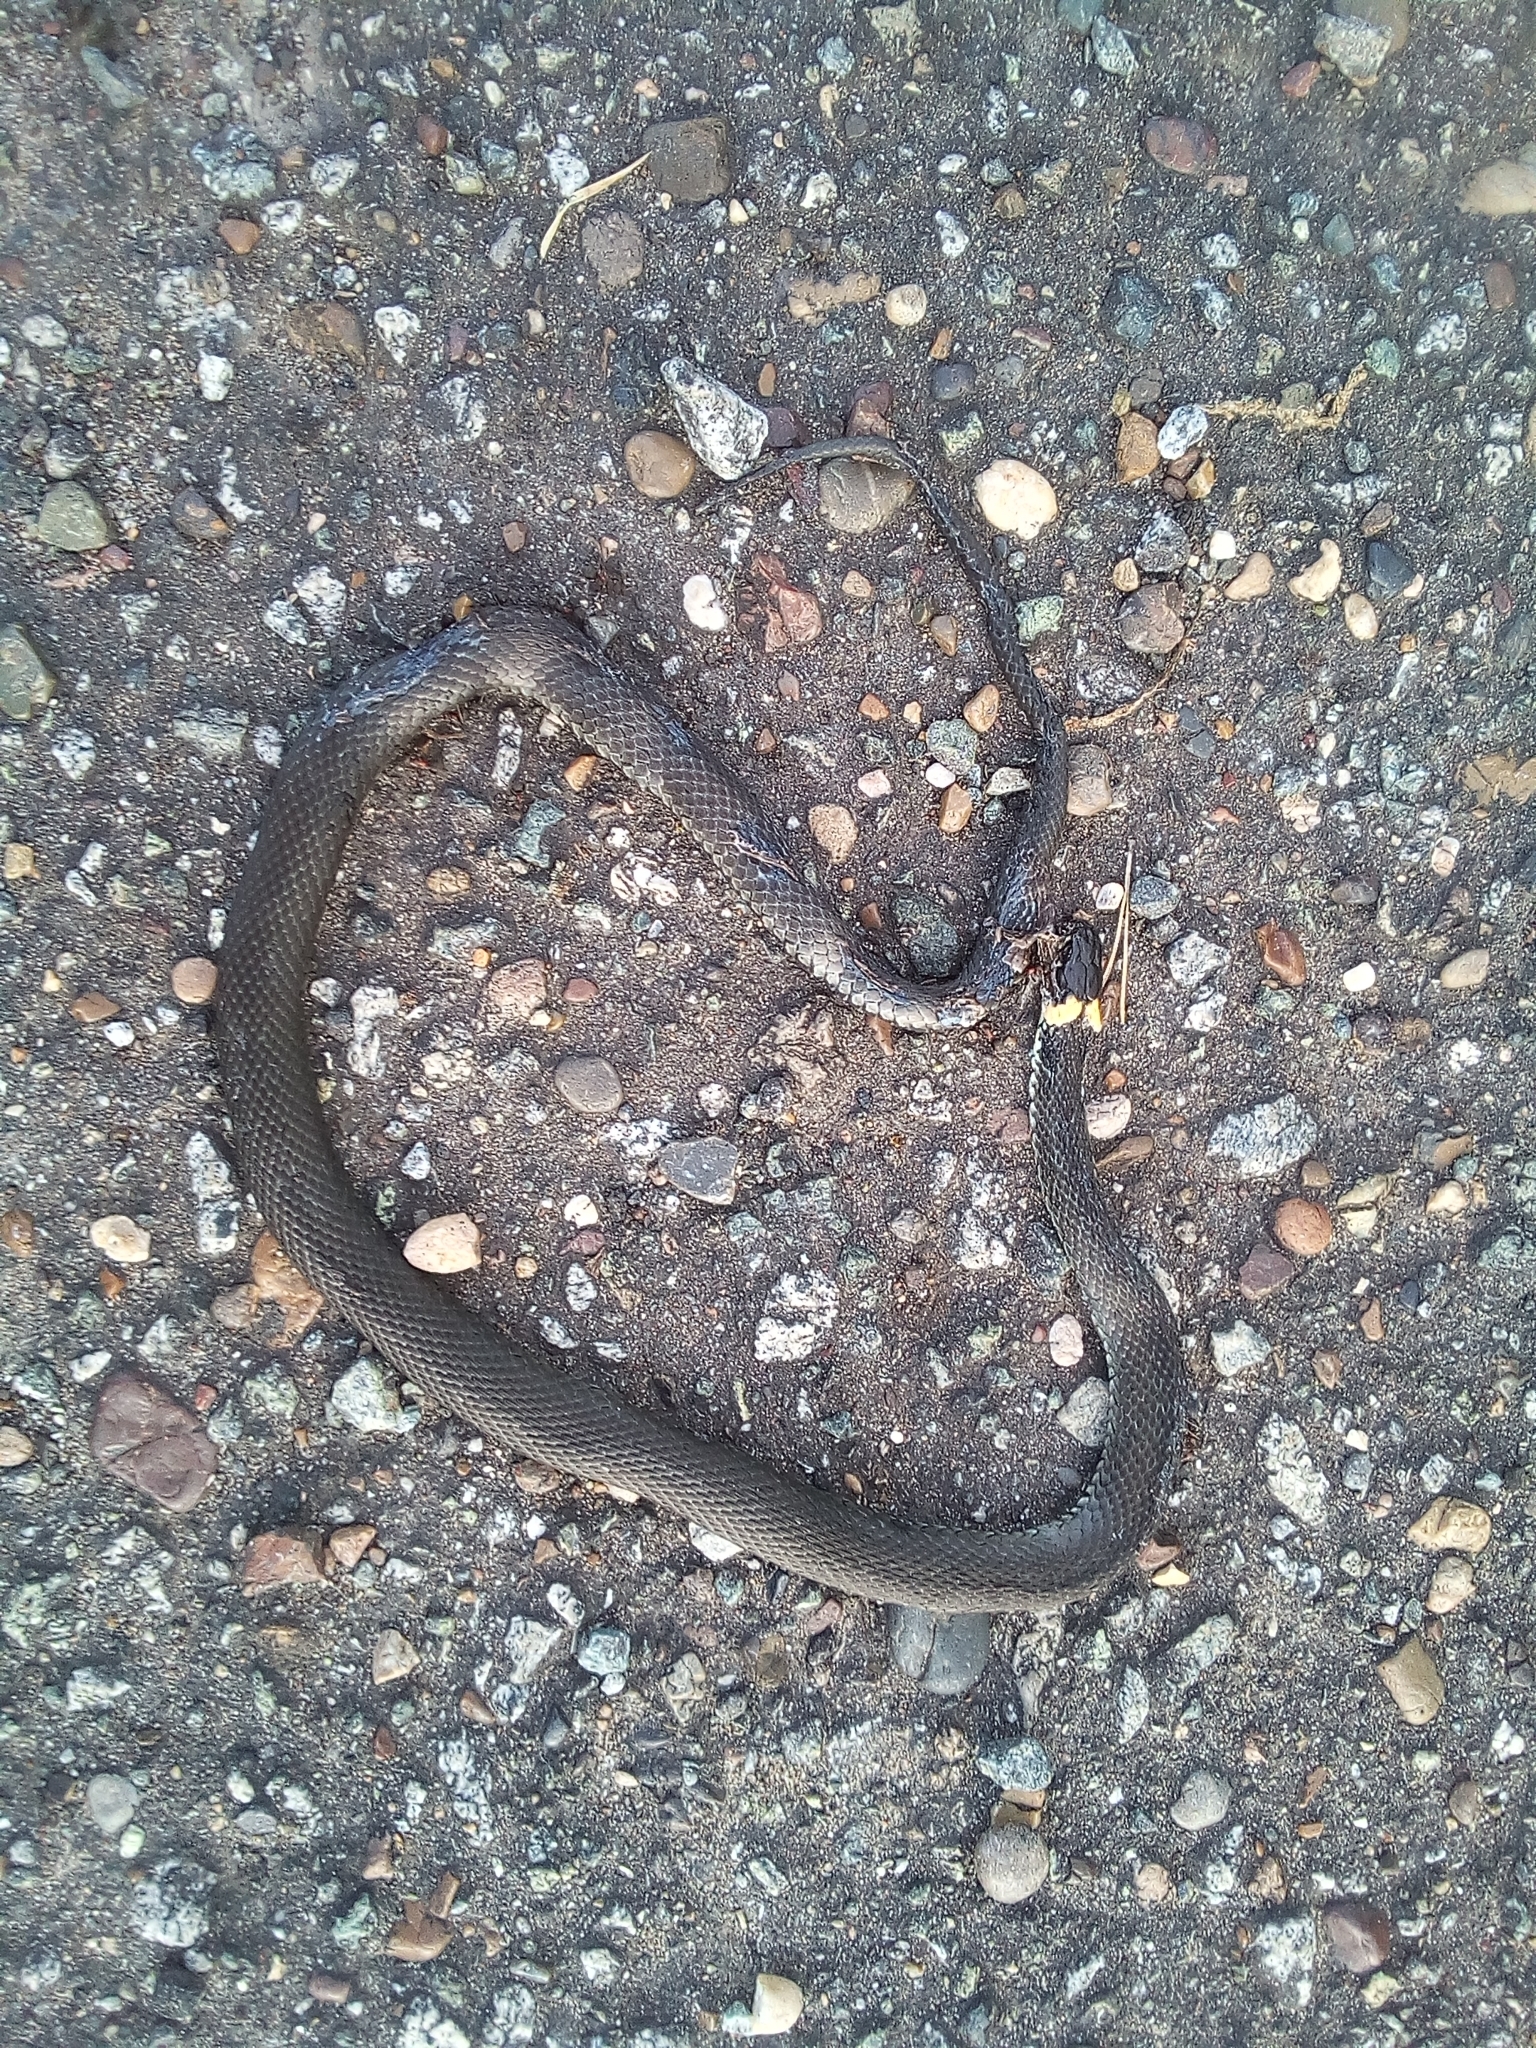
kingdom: Animalia
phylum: Chordata
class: Squamata
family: Colubridae
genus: Natrix
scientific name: Natrix natrix
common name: Grass snake
